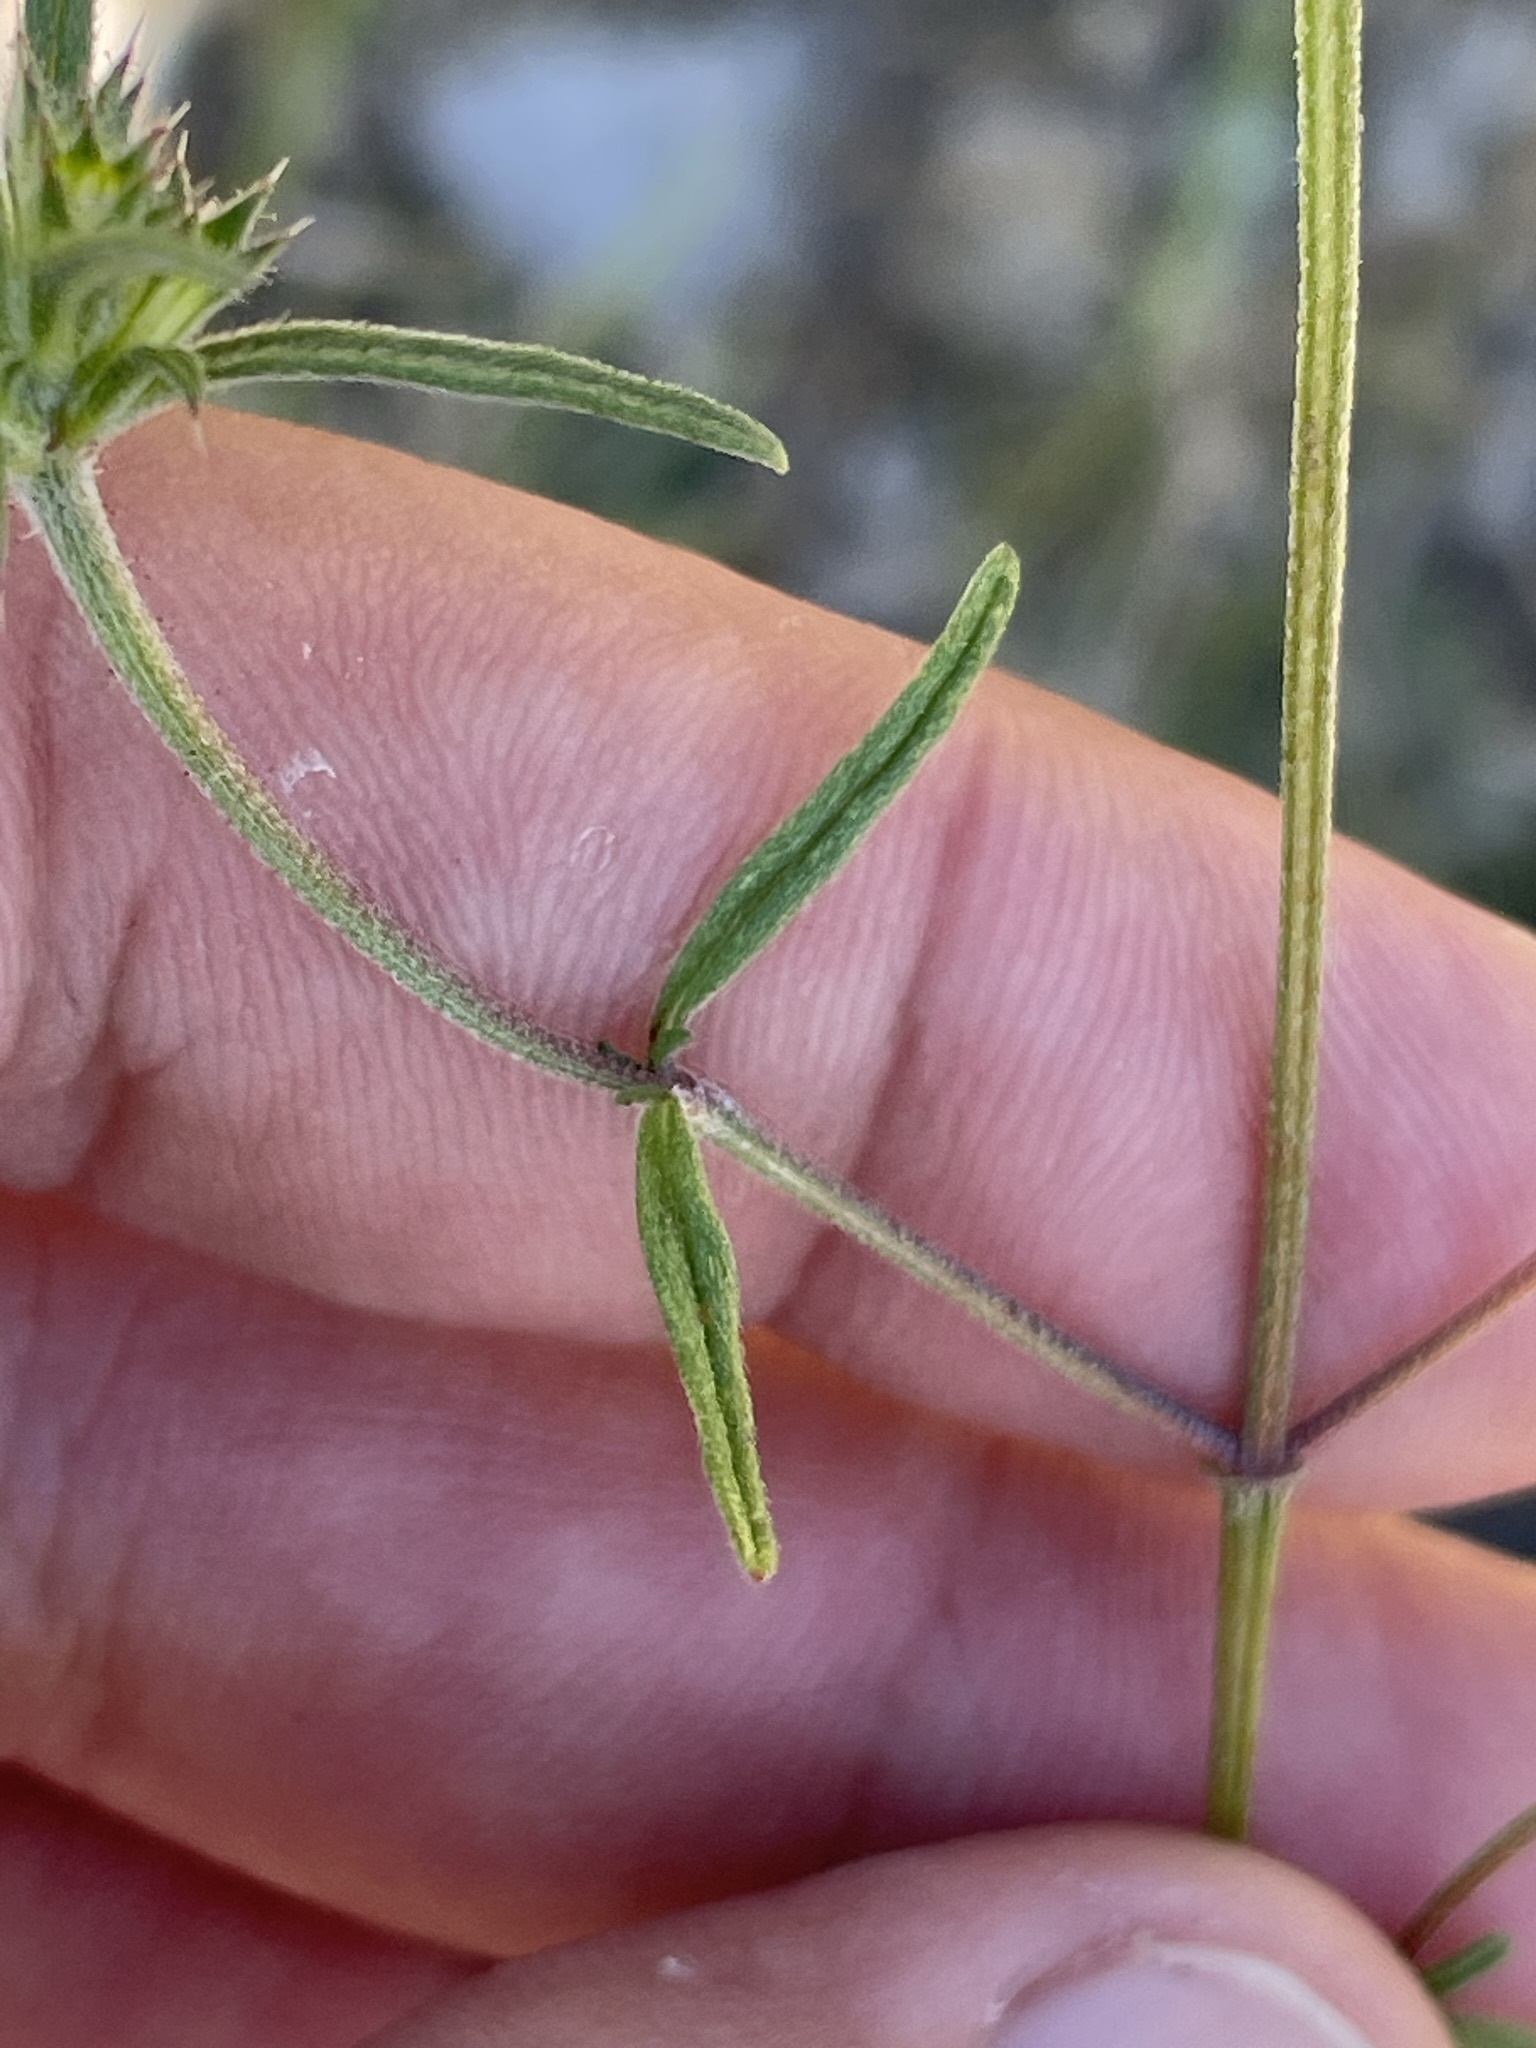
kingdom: Plantae
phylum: Tracheophyta
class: Magnoliopsida
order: Lamiales
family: Lamiaceae
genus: Galeopsis
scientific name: Galeopsis angustifolia
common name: Red hemp-nettle
